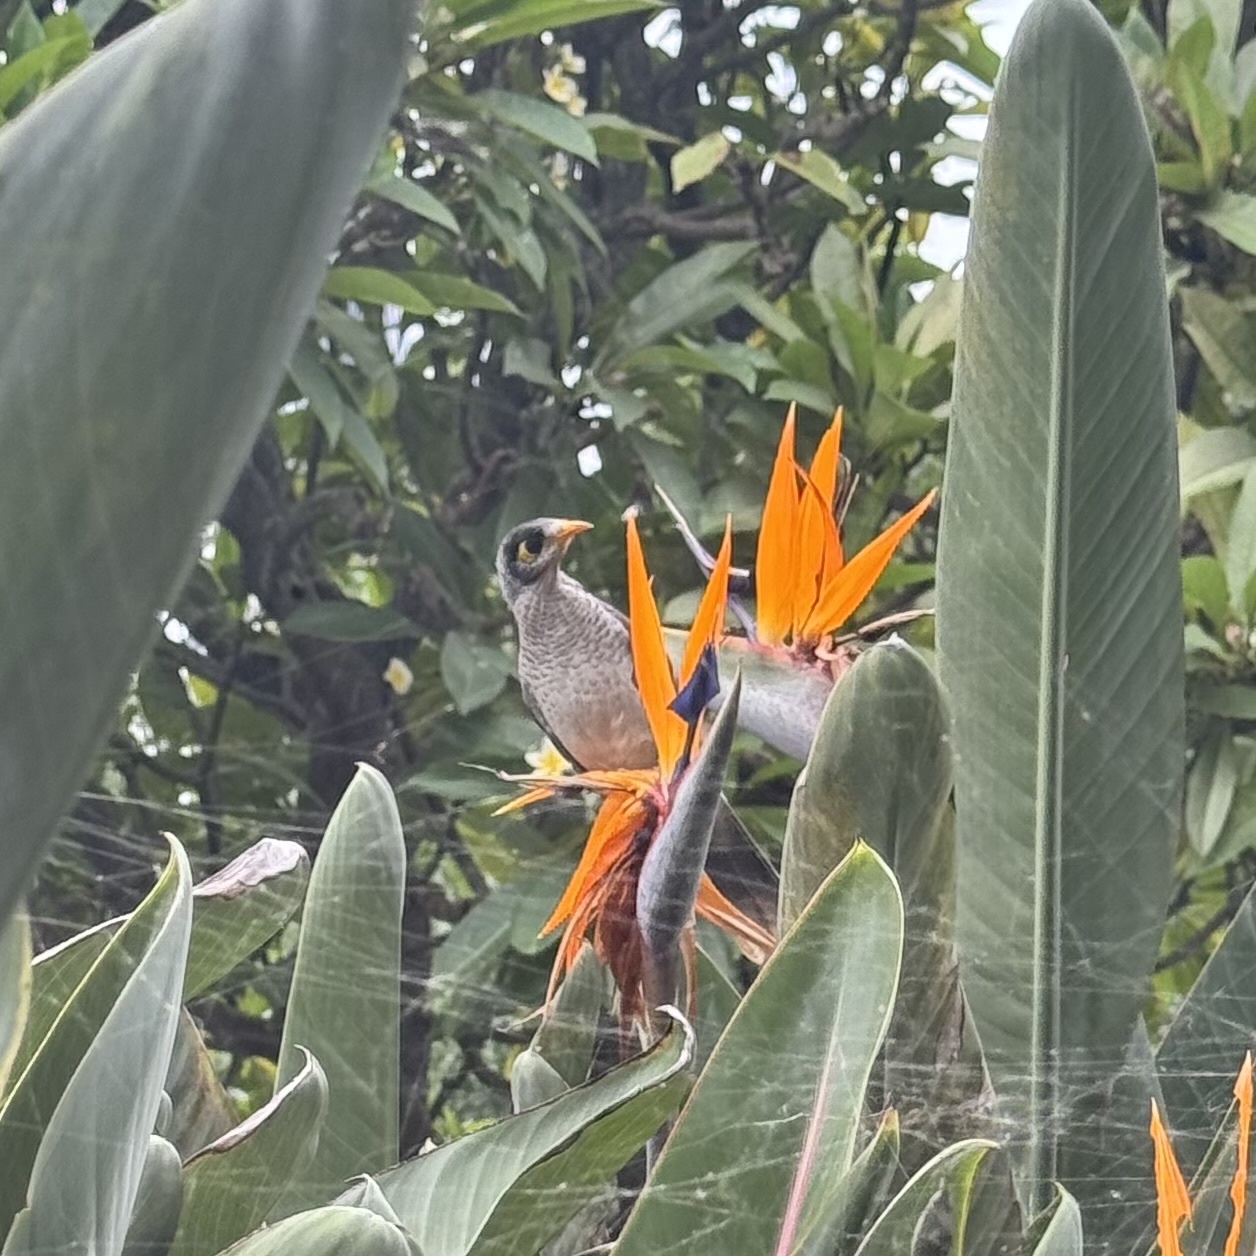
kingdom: Animalia
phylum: Chordata
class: Aves
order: Passeriformes
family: Meliphagidae
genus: Manorina
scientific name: Manorina melanocephala
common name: Noisy miner
